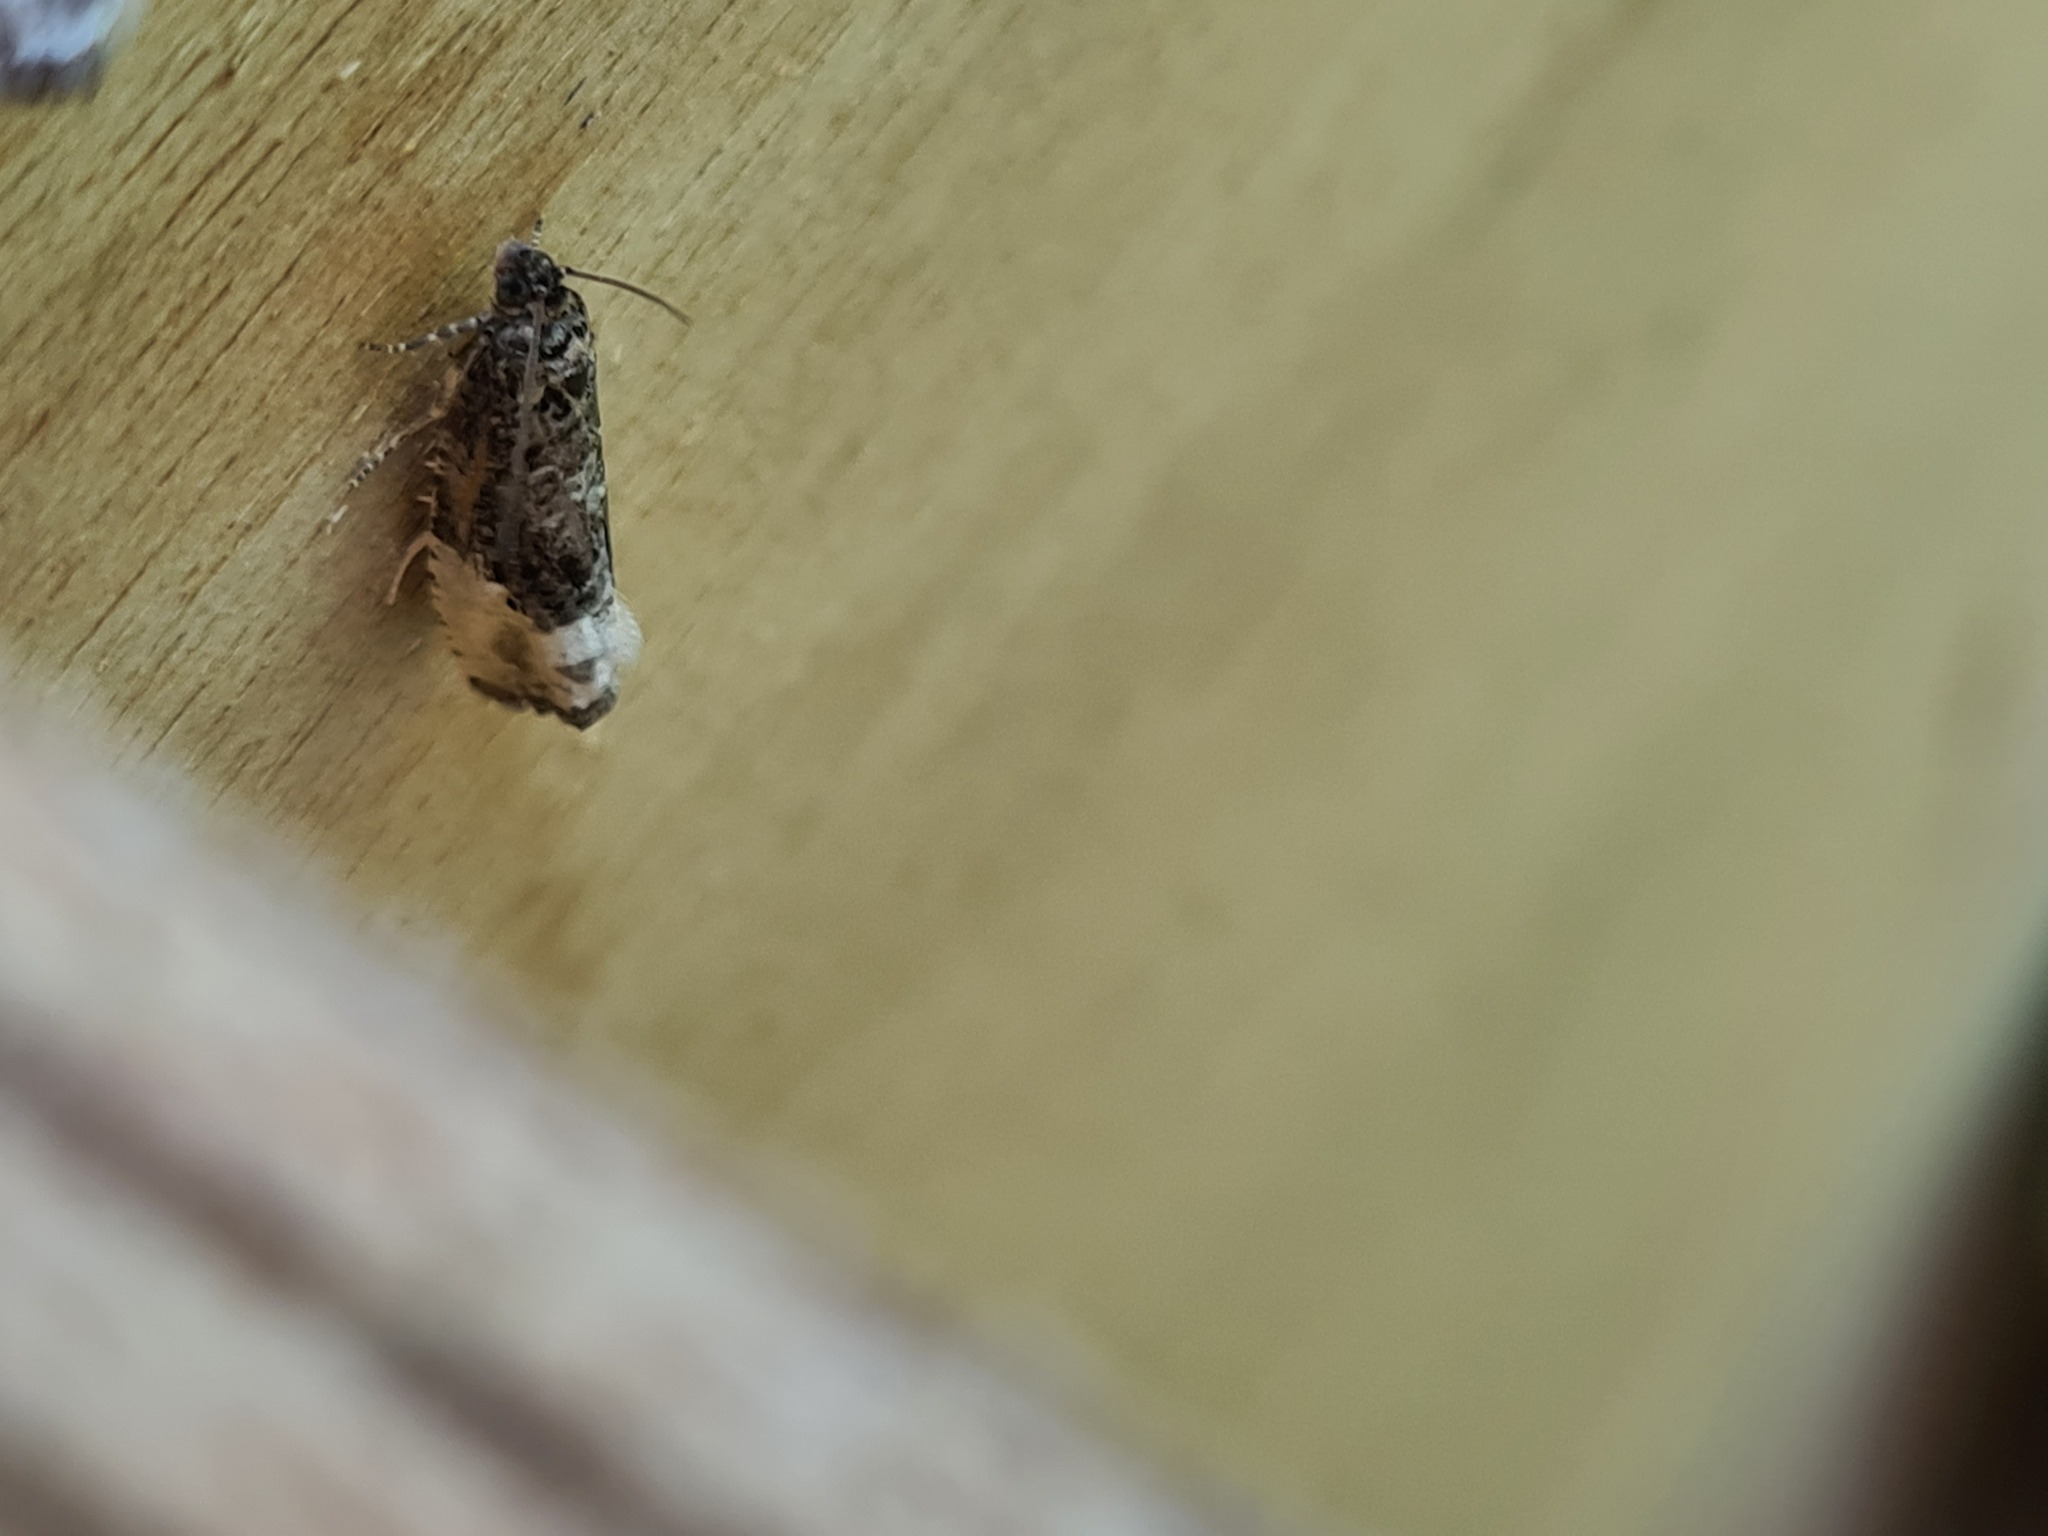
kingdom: Animalia
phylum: Arthropoda
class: Insecta
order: Lepidoptera
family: Tortricidae
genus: Hedya
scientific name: Hedya nubiferana
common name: Marbled orchard tortrix
